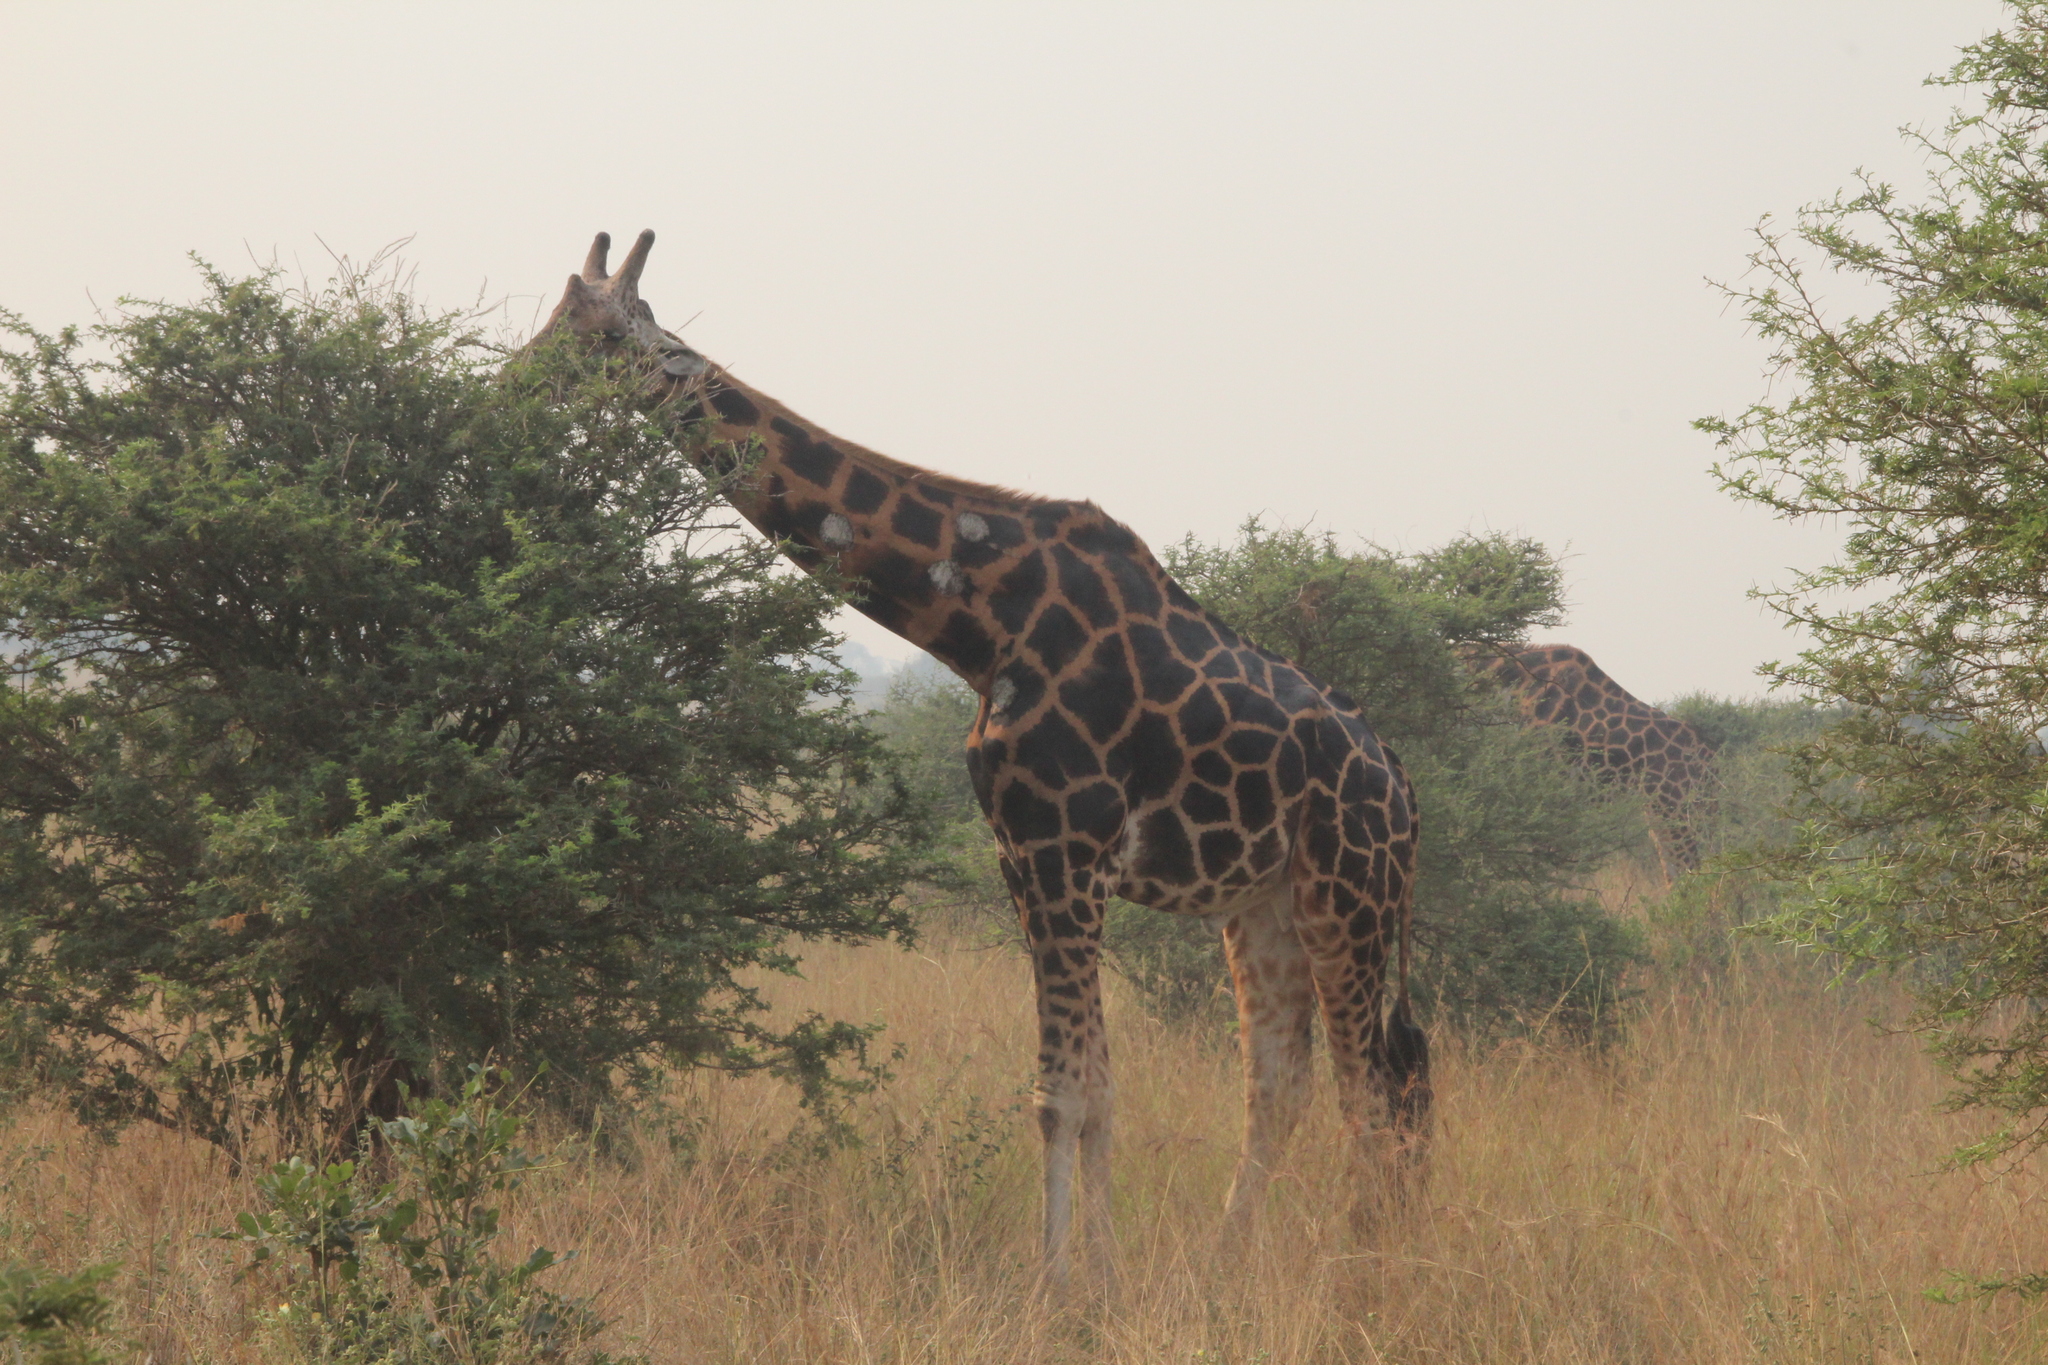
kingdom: Animalia
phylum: Chordata
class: Mammalia
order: Artiodactyla
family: Giraffidae
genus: Giraffa
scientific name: Giraffa camelopardalis
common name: Giraffe
